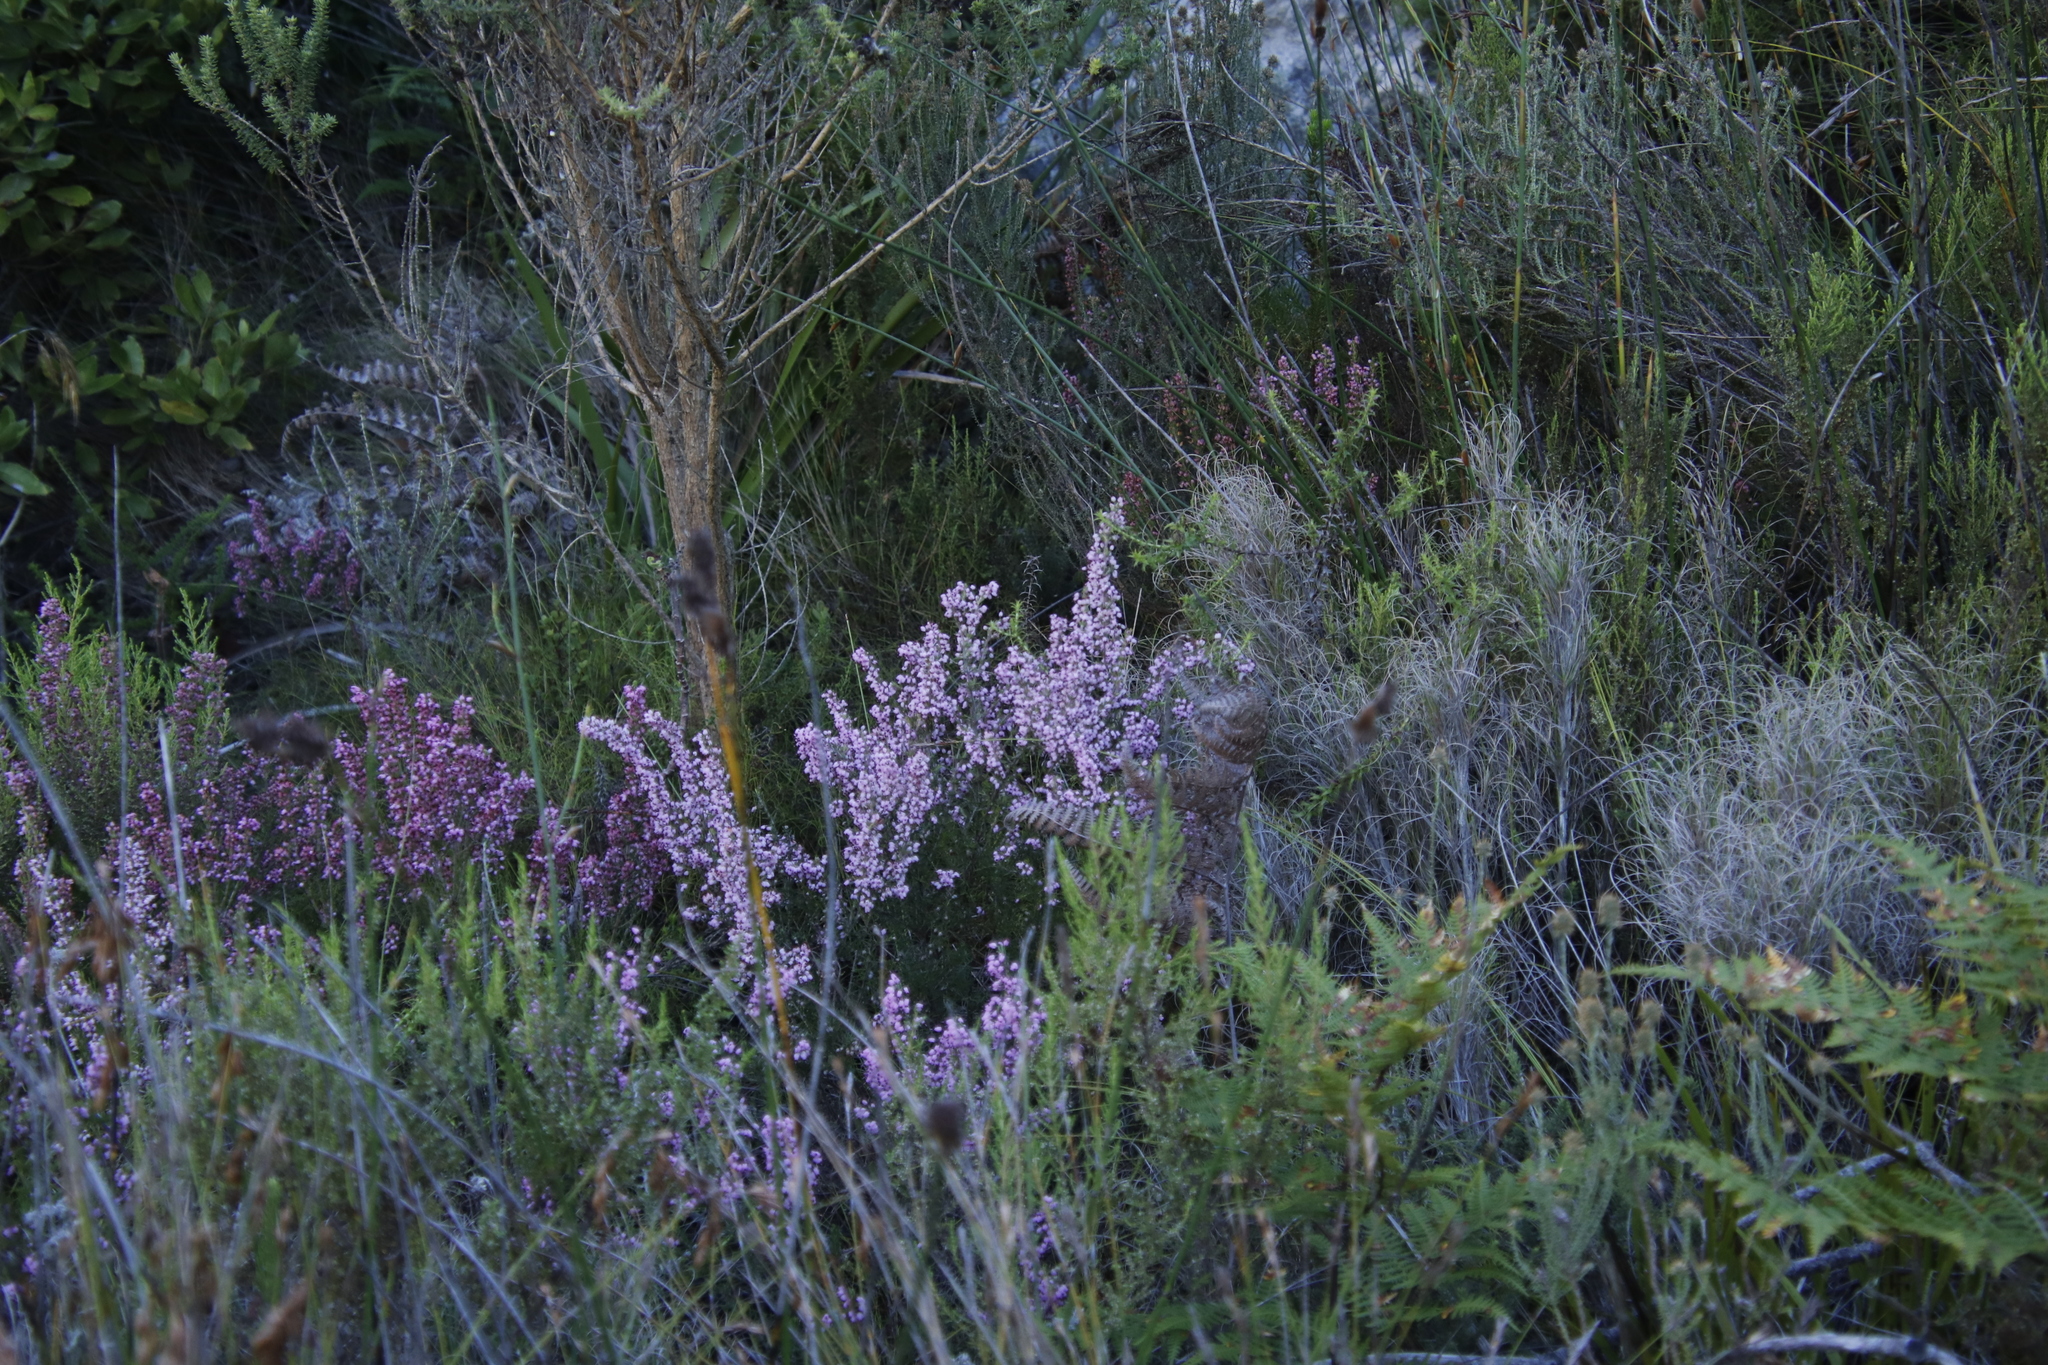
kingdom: Plantae
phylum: Tracheophyta
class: Magnoliopsida
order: Ericales
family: Ericaceae
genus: Erica
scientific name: Erica nudiflora
